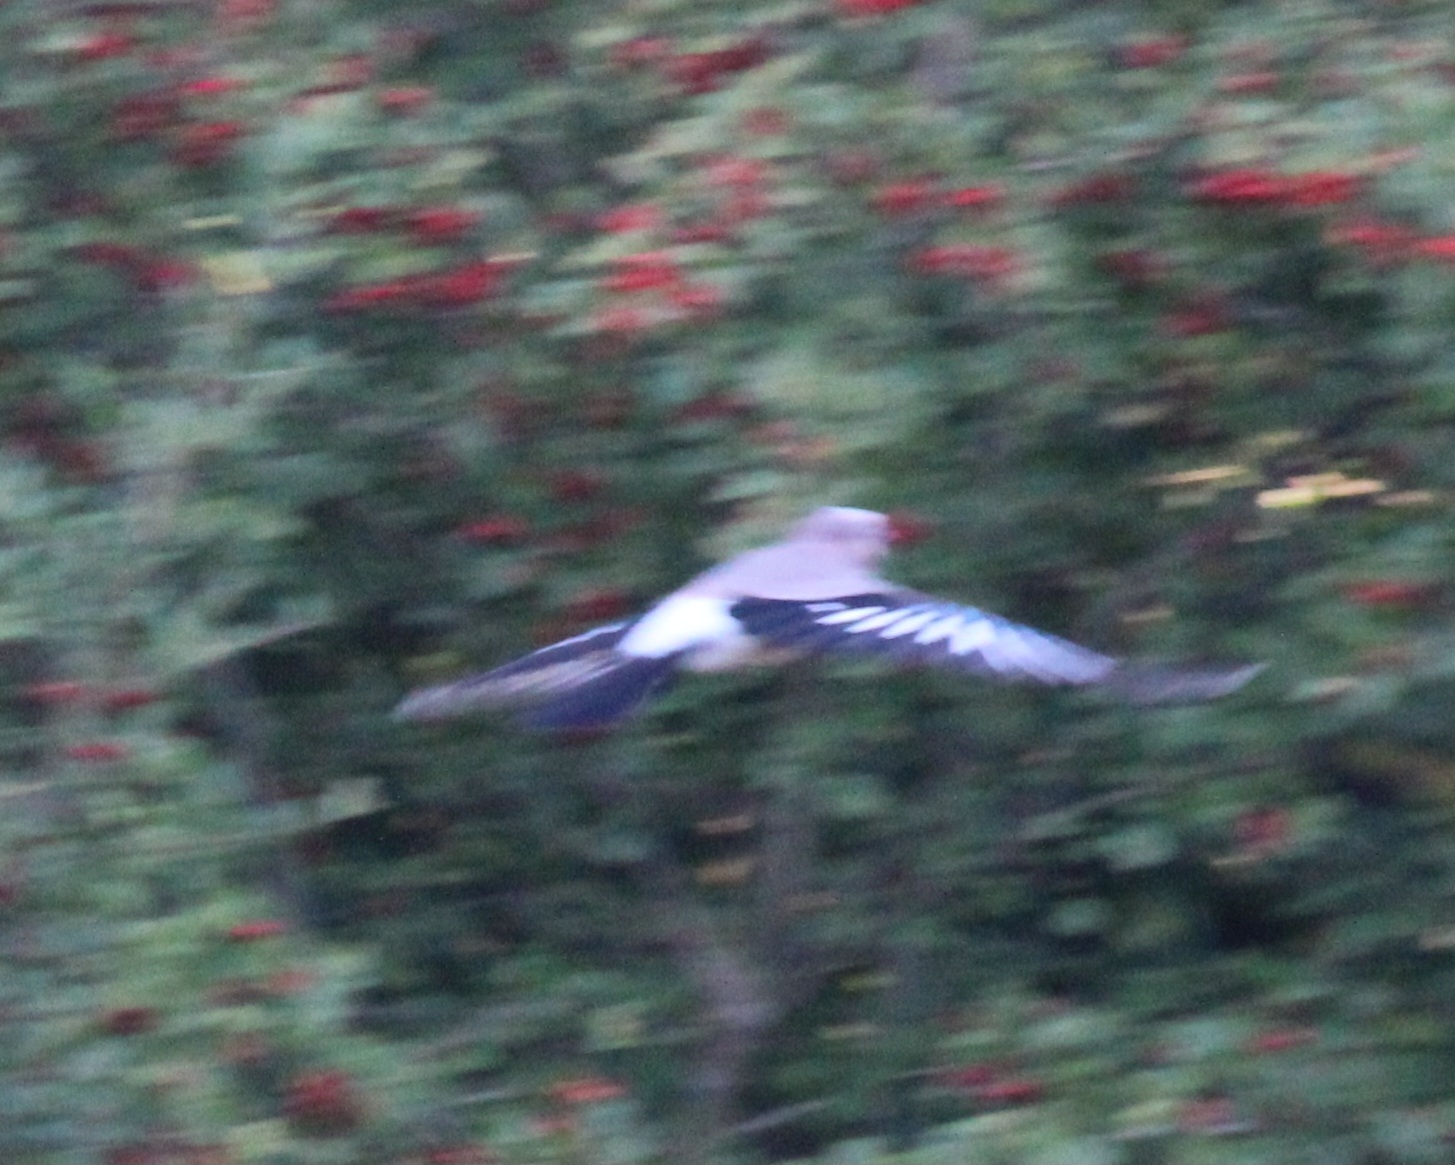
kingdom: Animalia
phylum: Chordata
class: Aves
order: Passeriformes
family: Corvidae
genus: Garrulus
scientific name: Garrulus glandarius
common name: Eurasian jay
